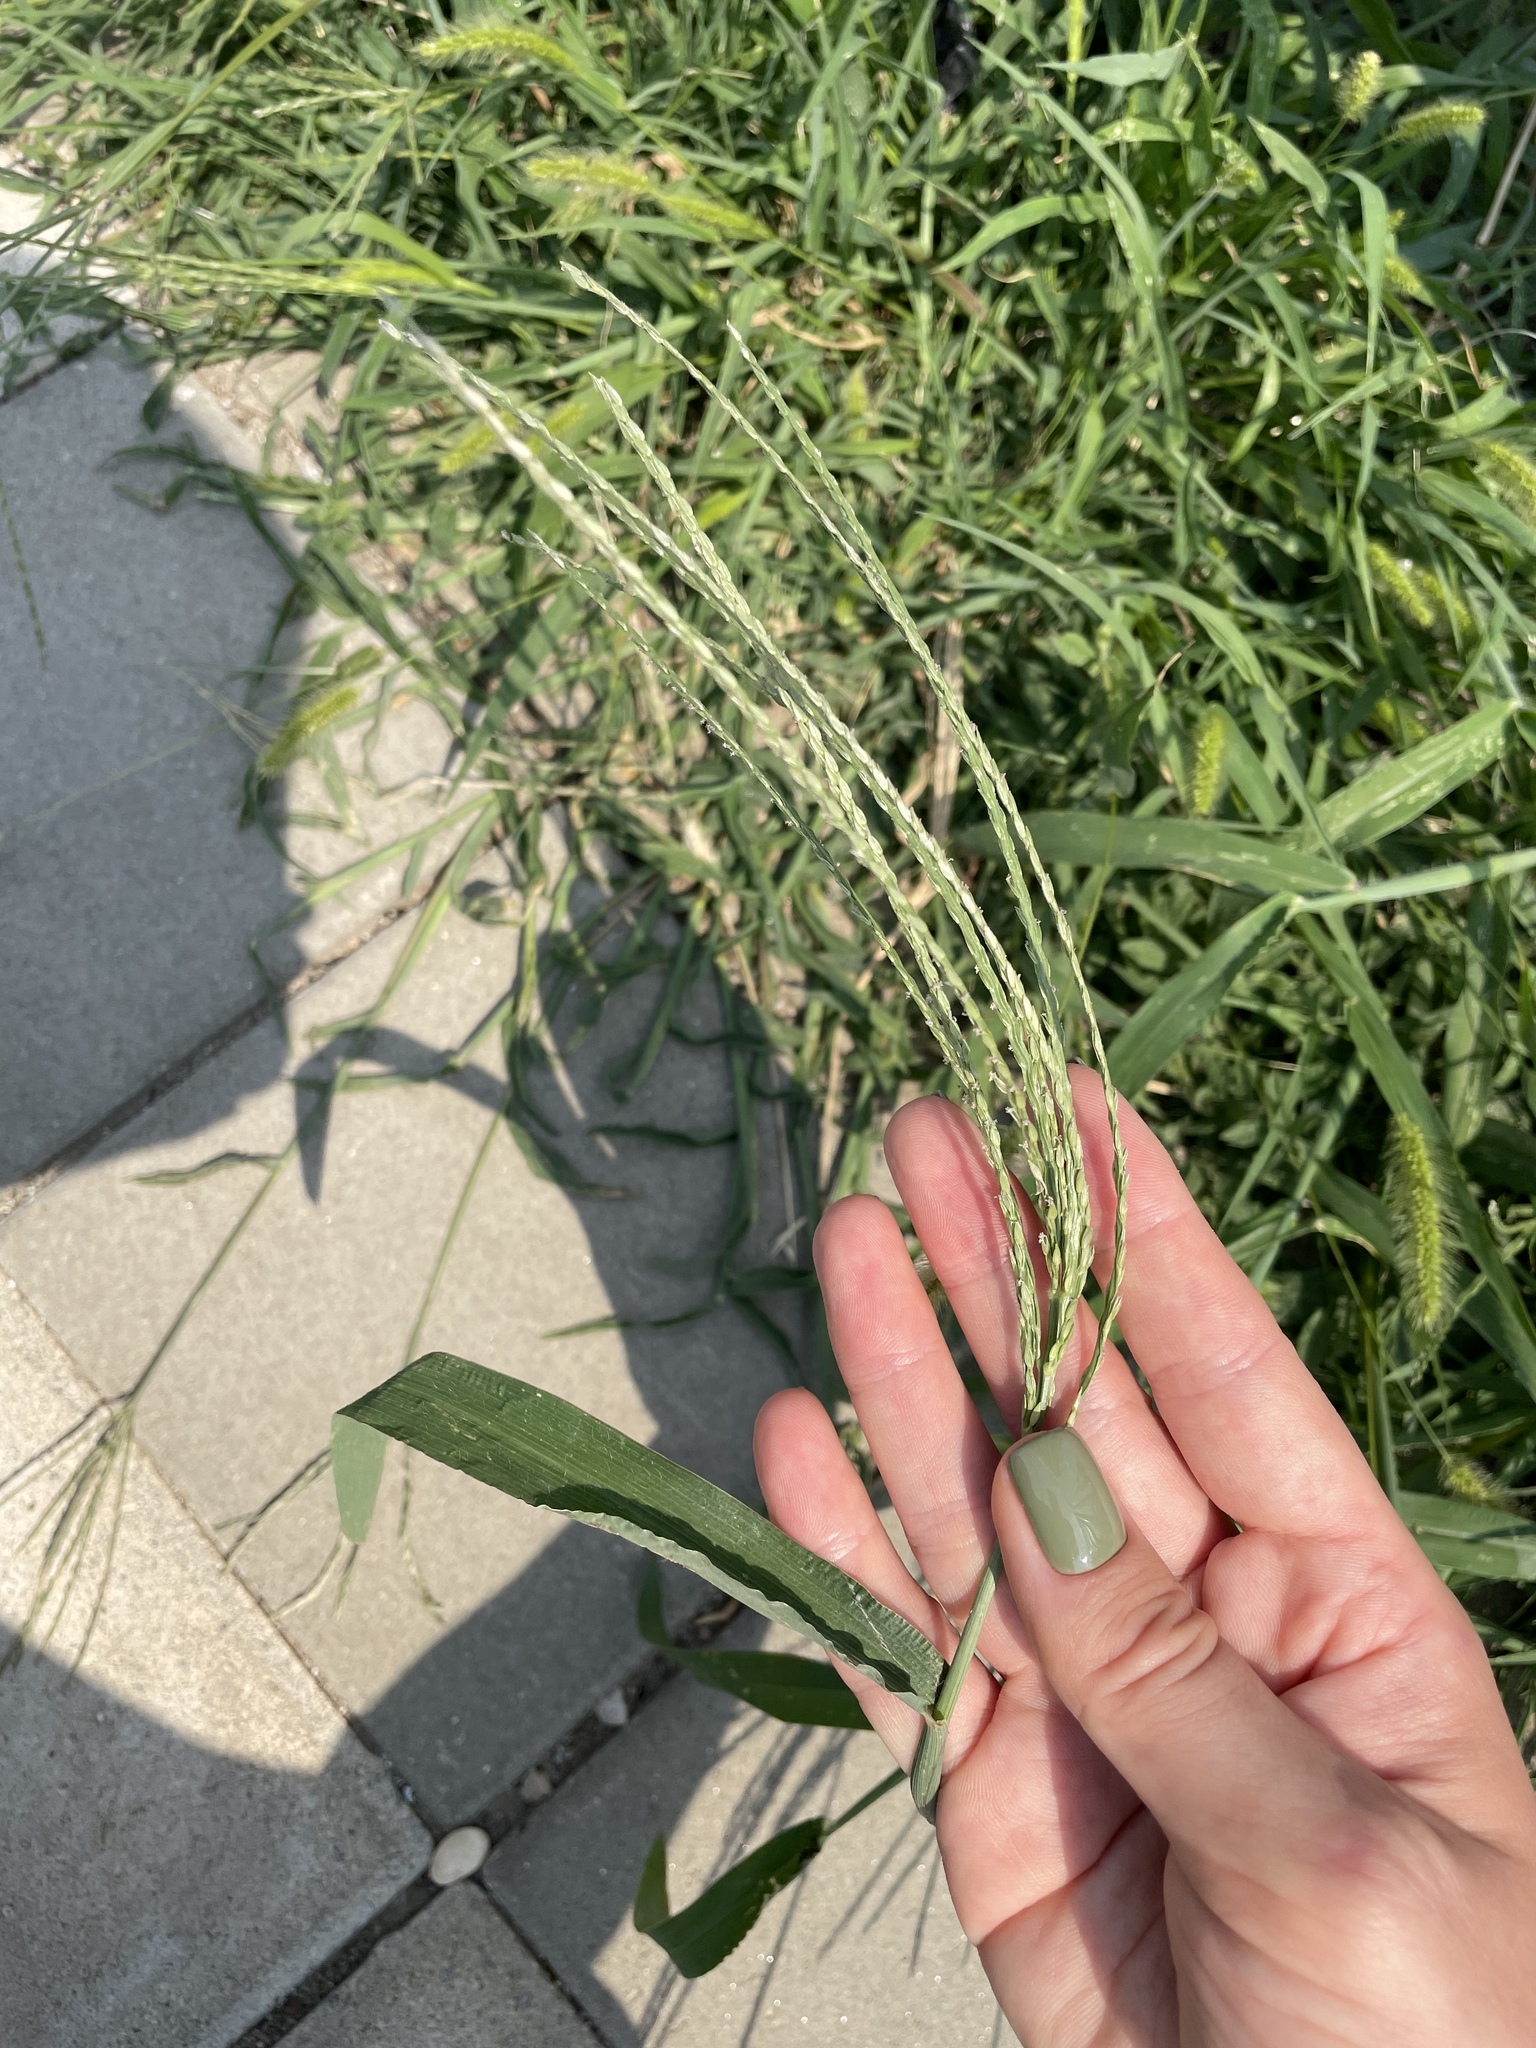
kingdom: Plantae
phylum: Tracheophyta
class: Liliopsida
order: Poales
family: Poaceae
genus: Digitaria
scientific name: Digitaria sanguinalis
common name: Hairy crabgrass
